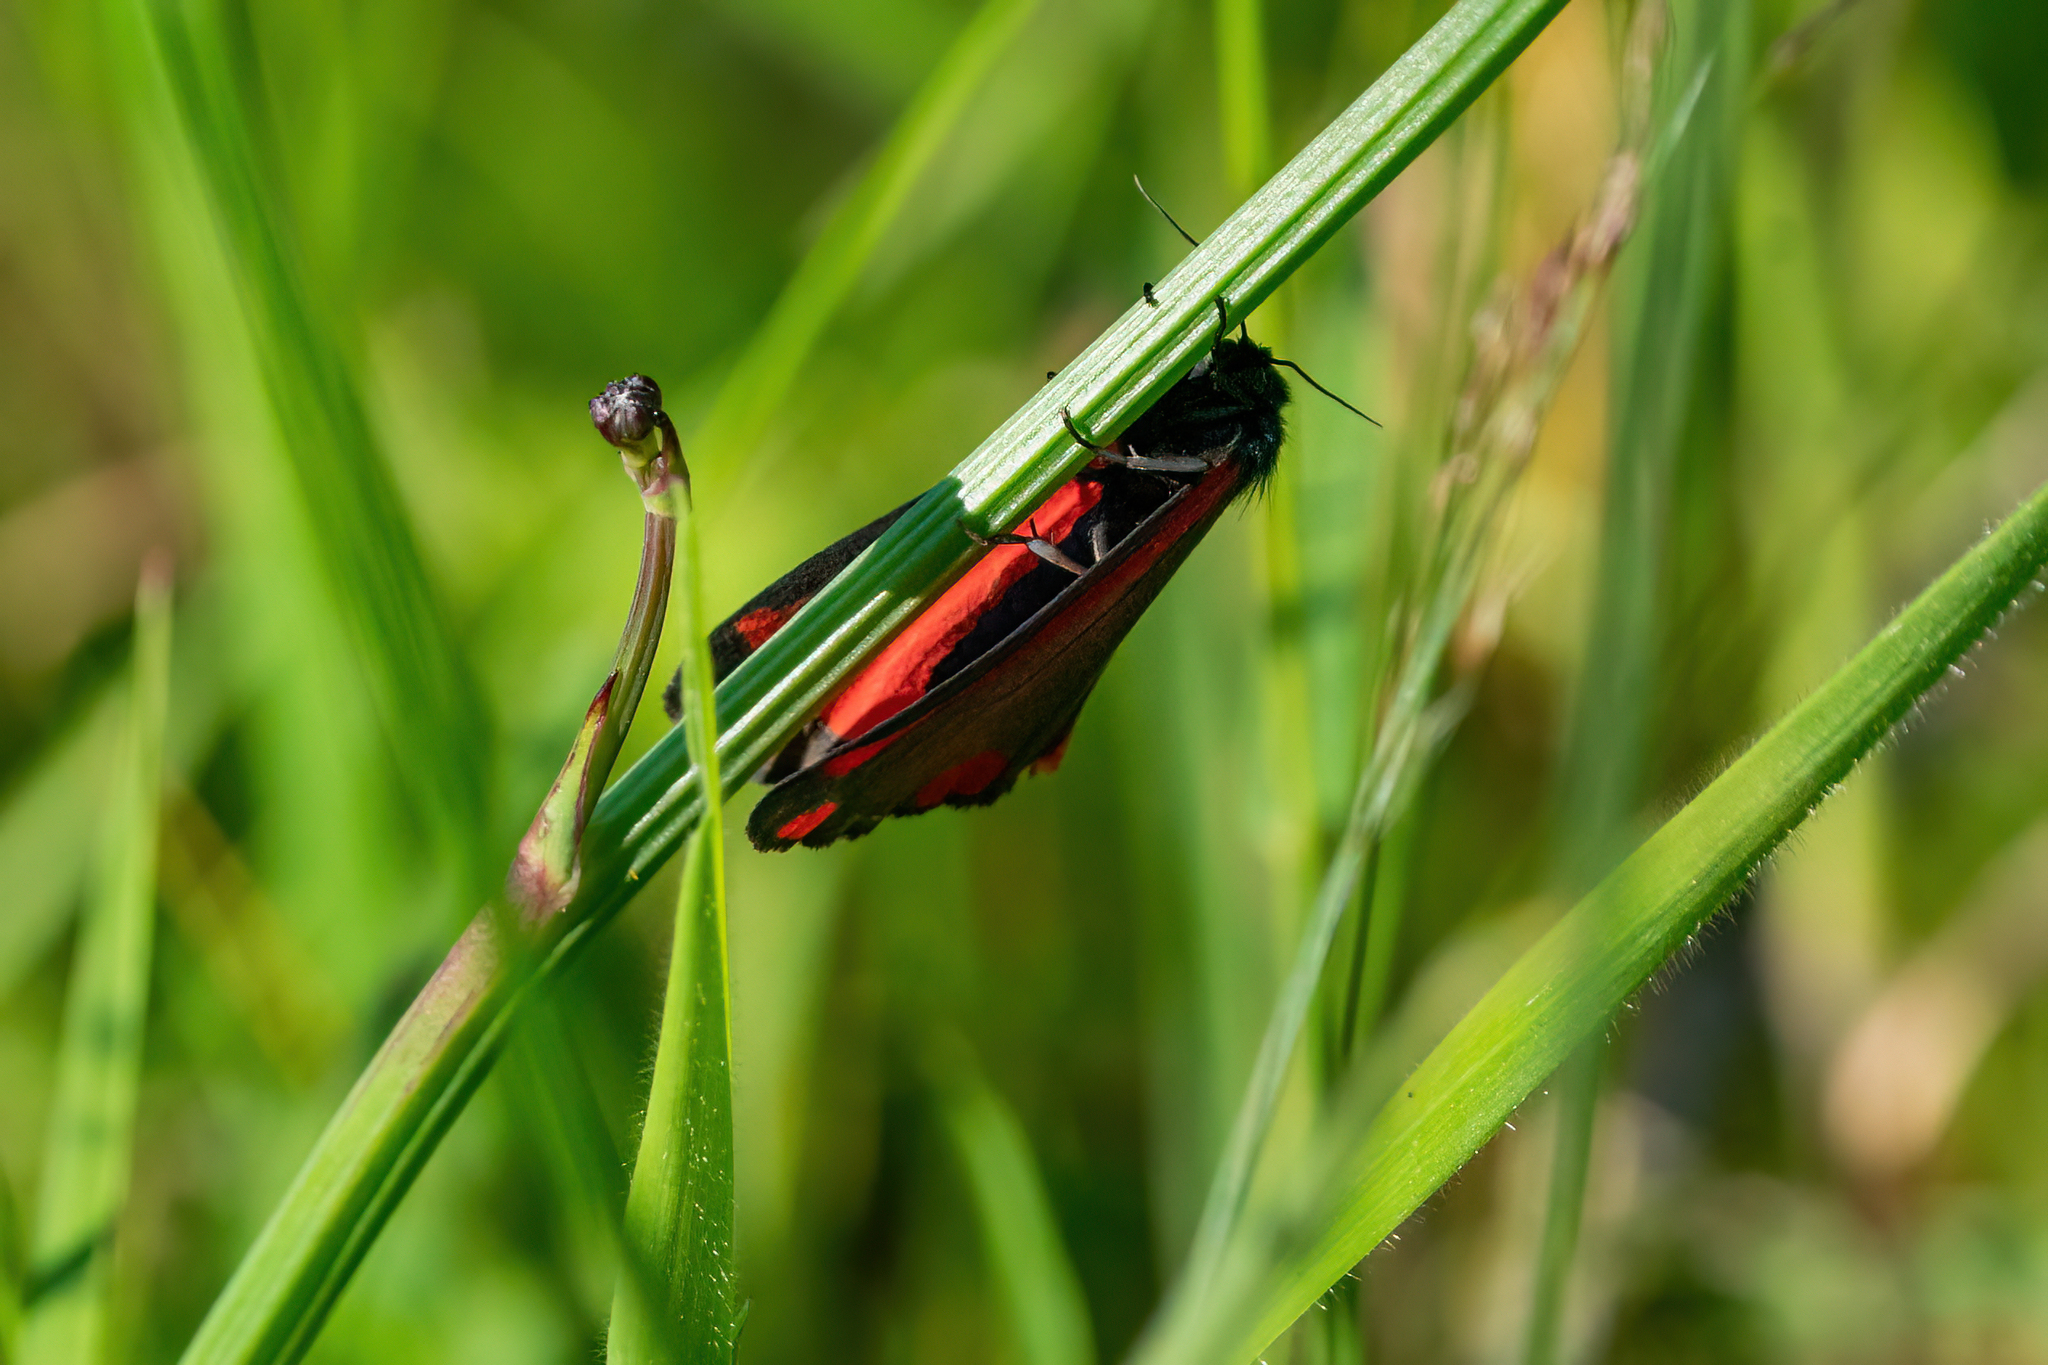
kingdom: Animalia
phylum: Arthropoda
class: Insecta
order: Lepidoptera
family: Erebidae
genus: Tyria
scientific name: Tyria jacobaeae
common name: Cinnabar
